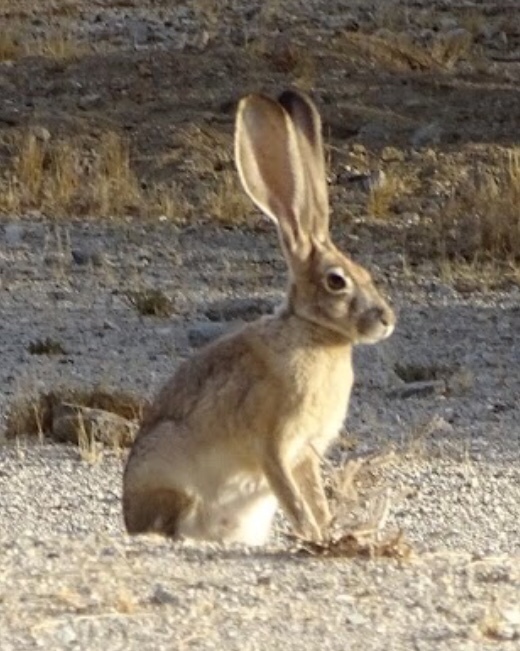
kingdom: Animalia
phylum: Chordata
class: Mammalia
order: Lagomorpha
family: Leporidae
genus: Lepus
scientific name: Lepus californicus
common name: Black-tailed jackrabbit
